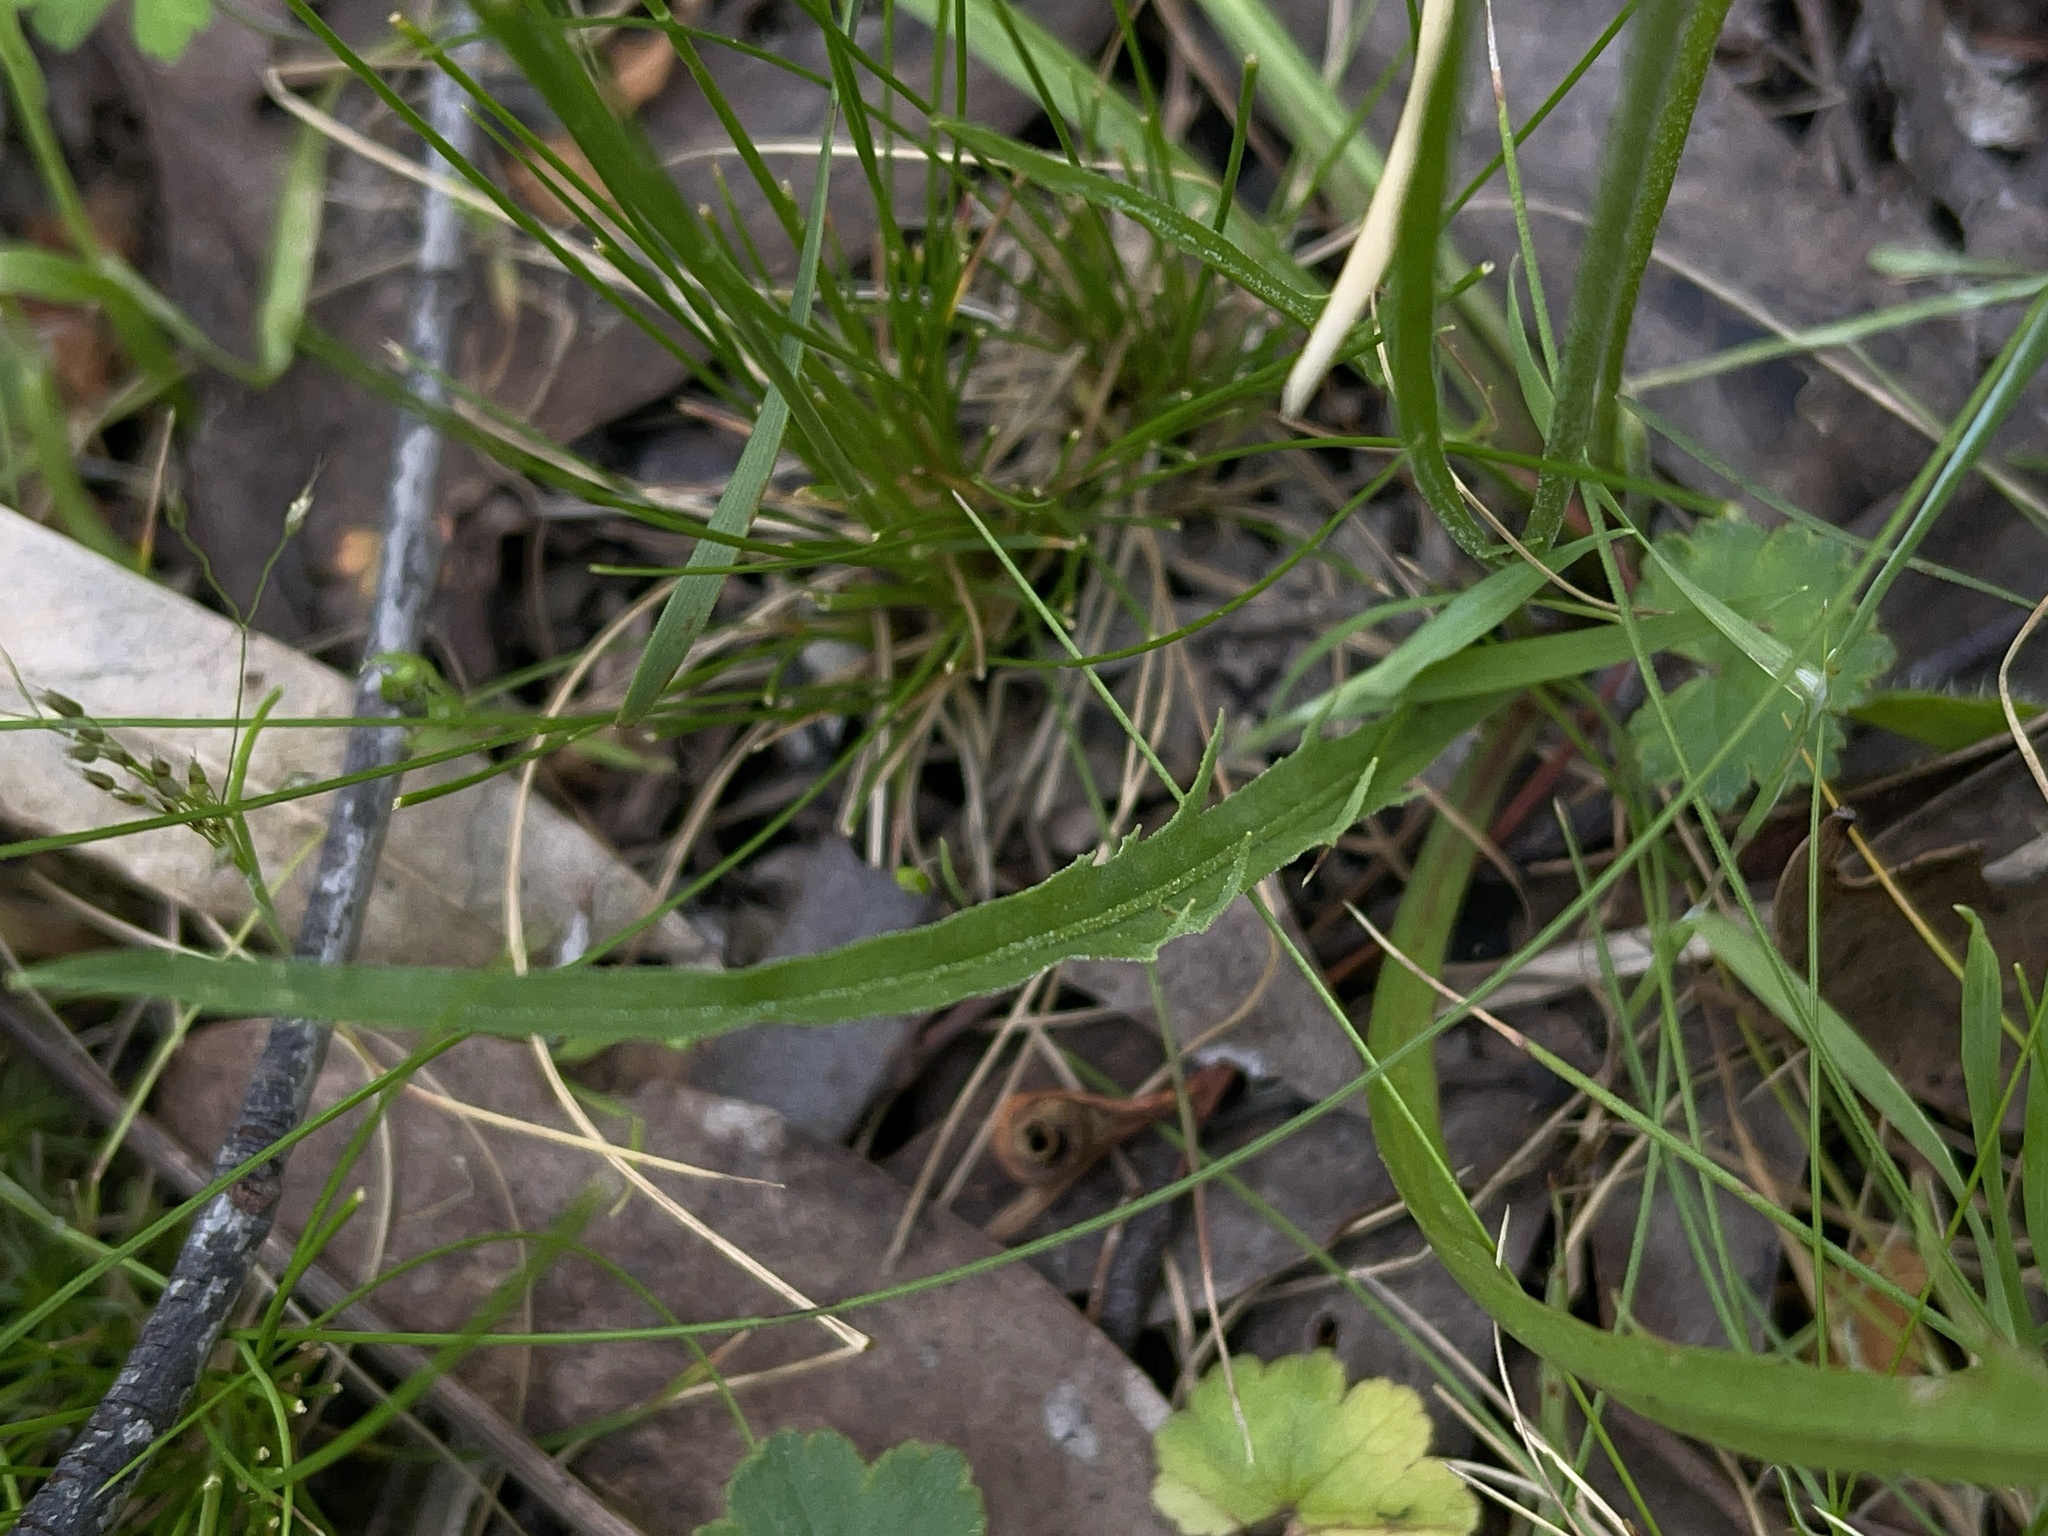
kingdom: Plantae
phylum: Tracheophyta
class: Magnoliopsida
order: Asterales
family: Asteraceae
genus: Microseris
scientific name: Microseris lanceolata
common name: Yam daisy
